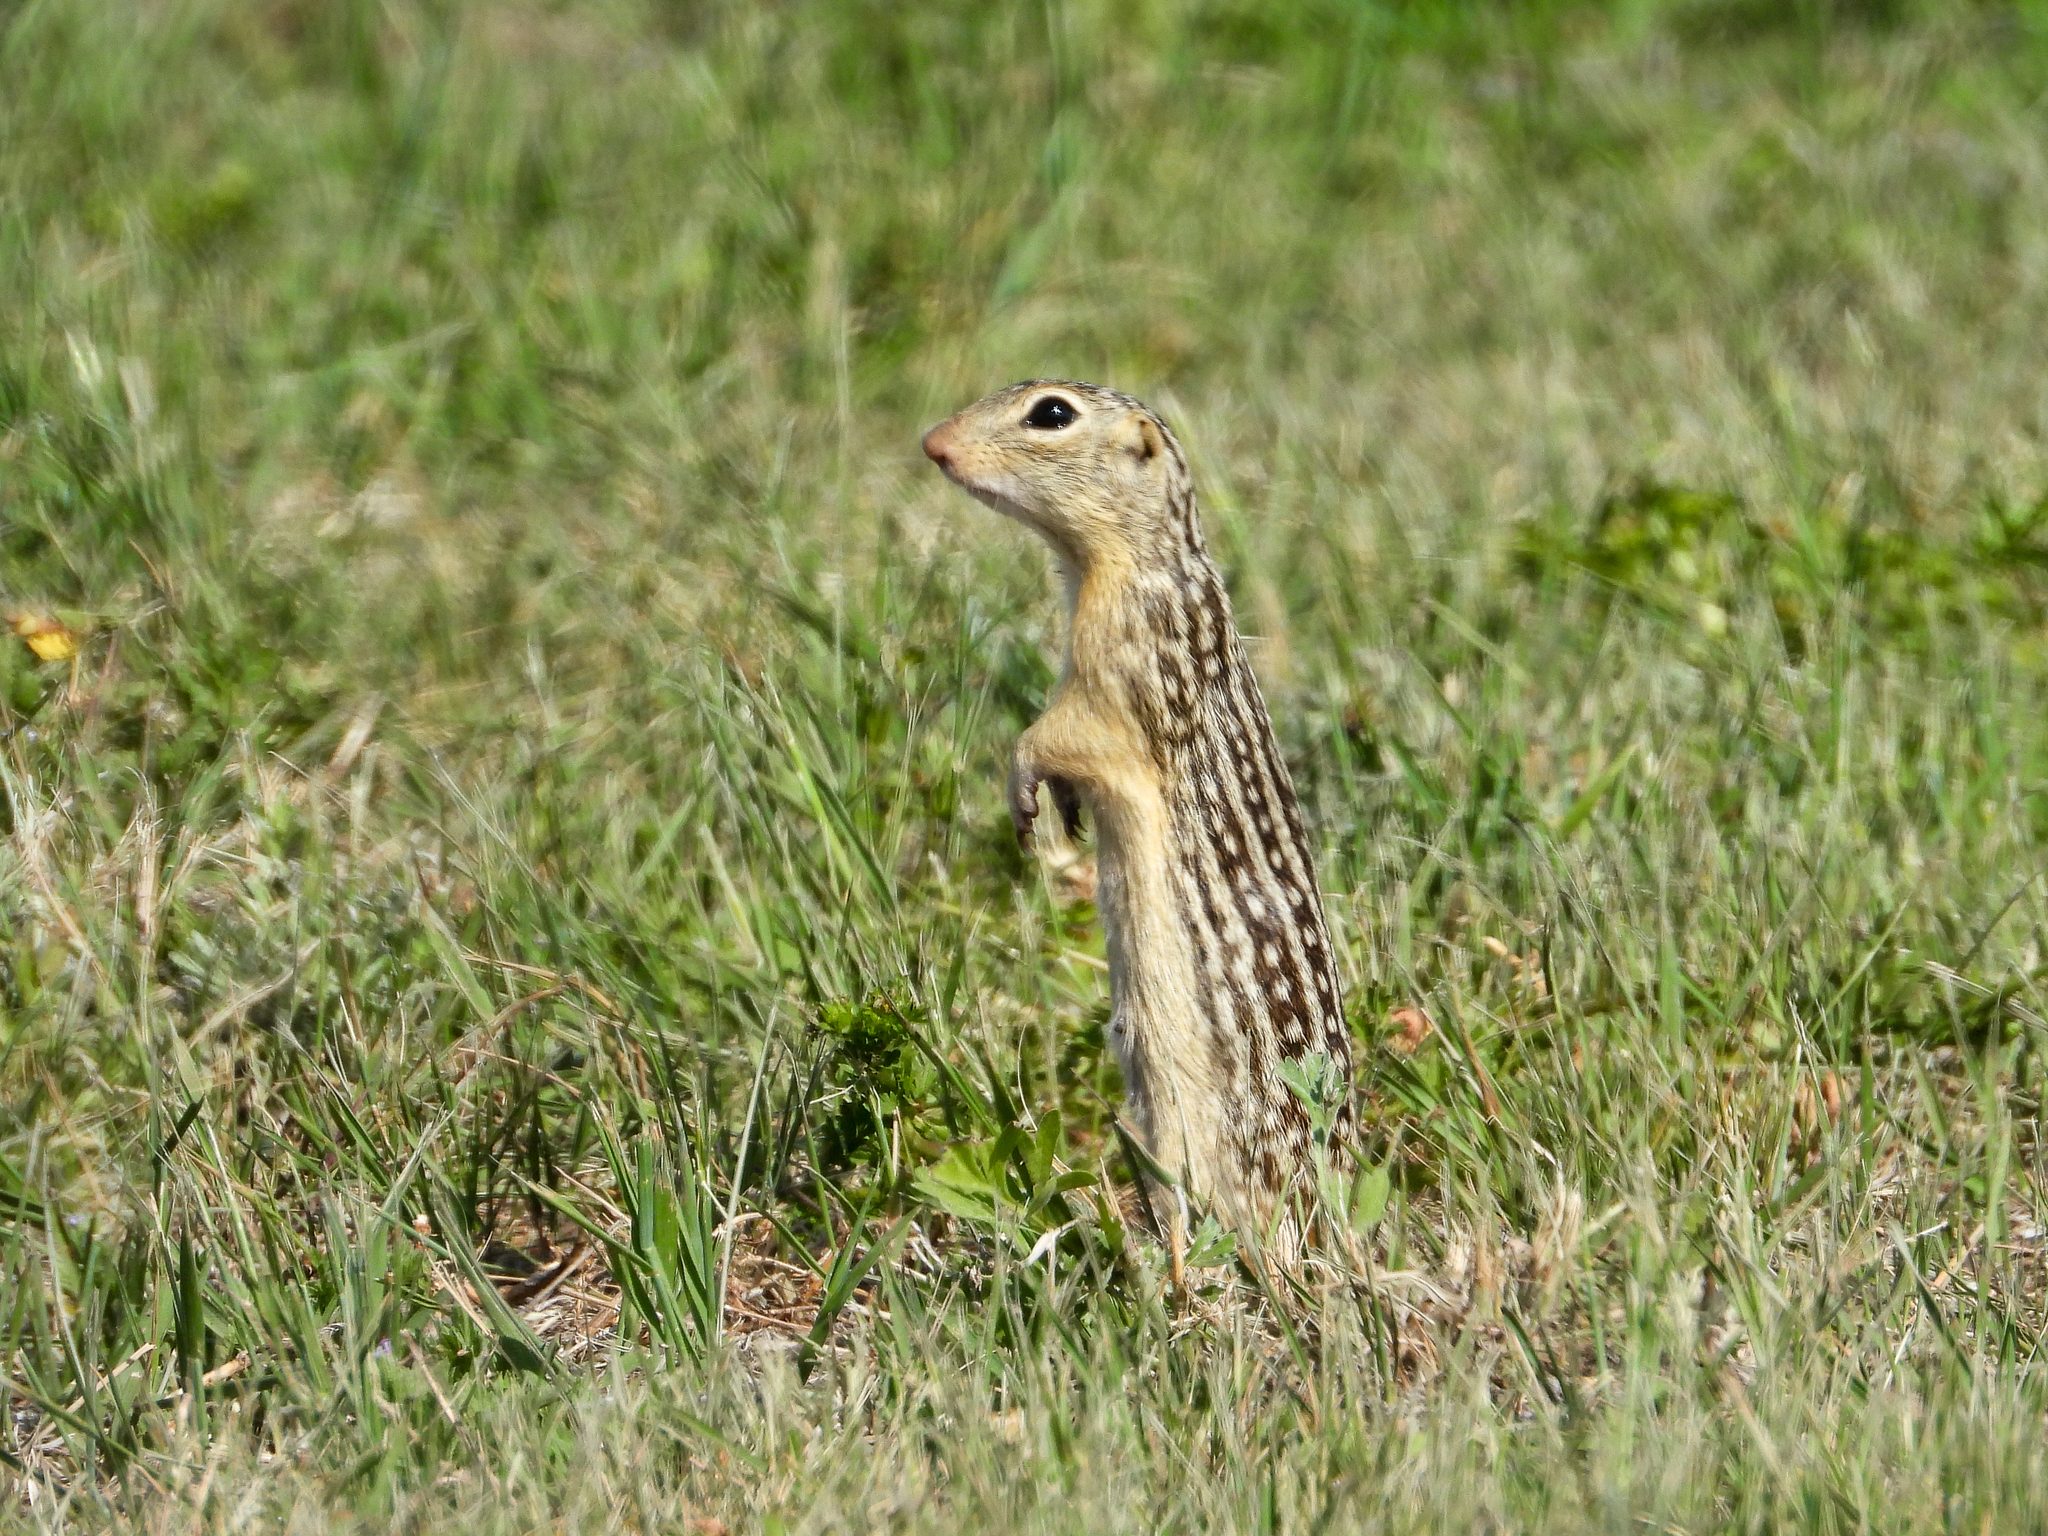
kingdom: Animalia
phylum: Chordata
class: Mammalia
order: Rodentia
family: Sciuridae
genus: Ictidomys
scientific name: Ictidomys tridecemlineatus
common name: Thirteen-lined ground squirrel
